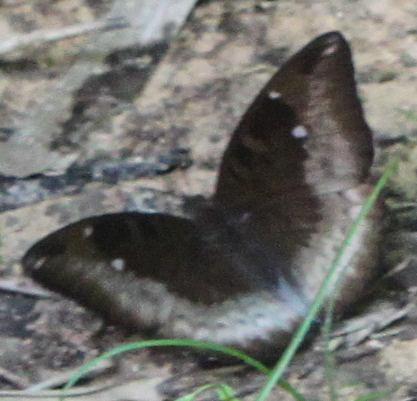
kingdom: Animalia
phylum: Arthropoda
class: Insecta
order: Lepidoptera
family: Nymphalidae
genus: Euthalia
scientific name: Euthalia monina
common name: Powdered baron
